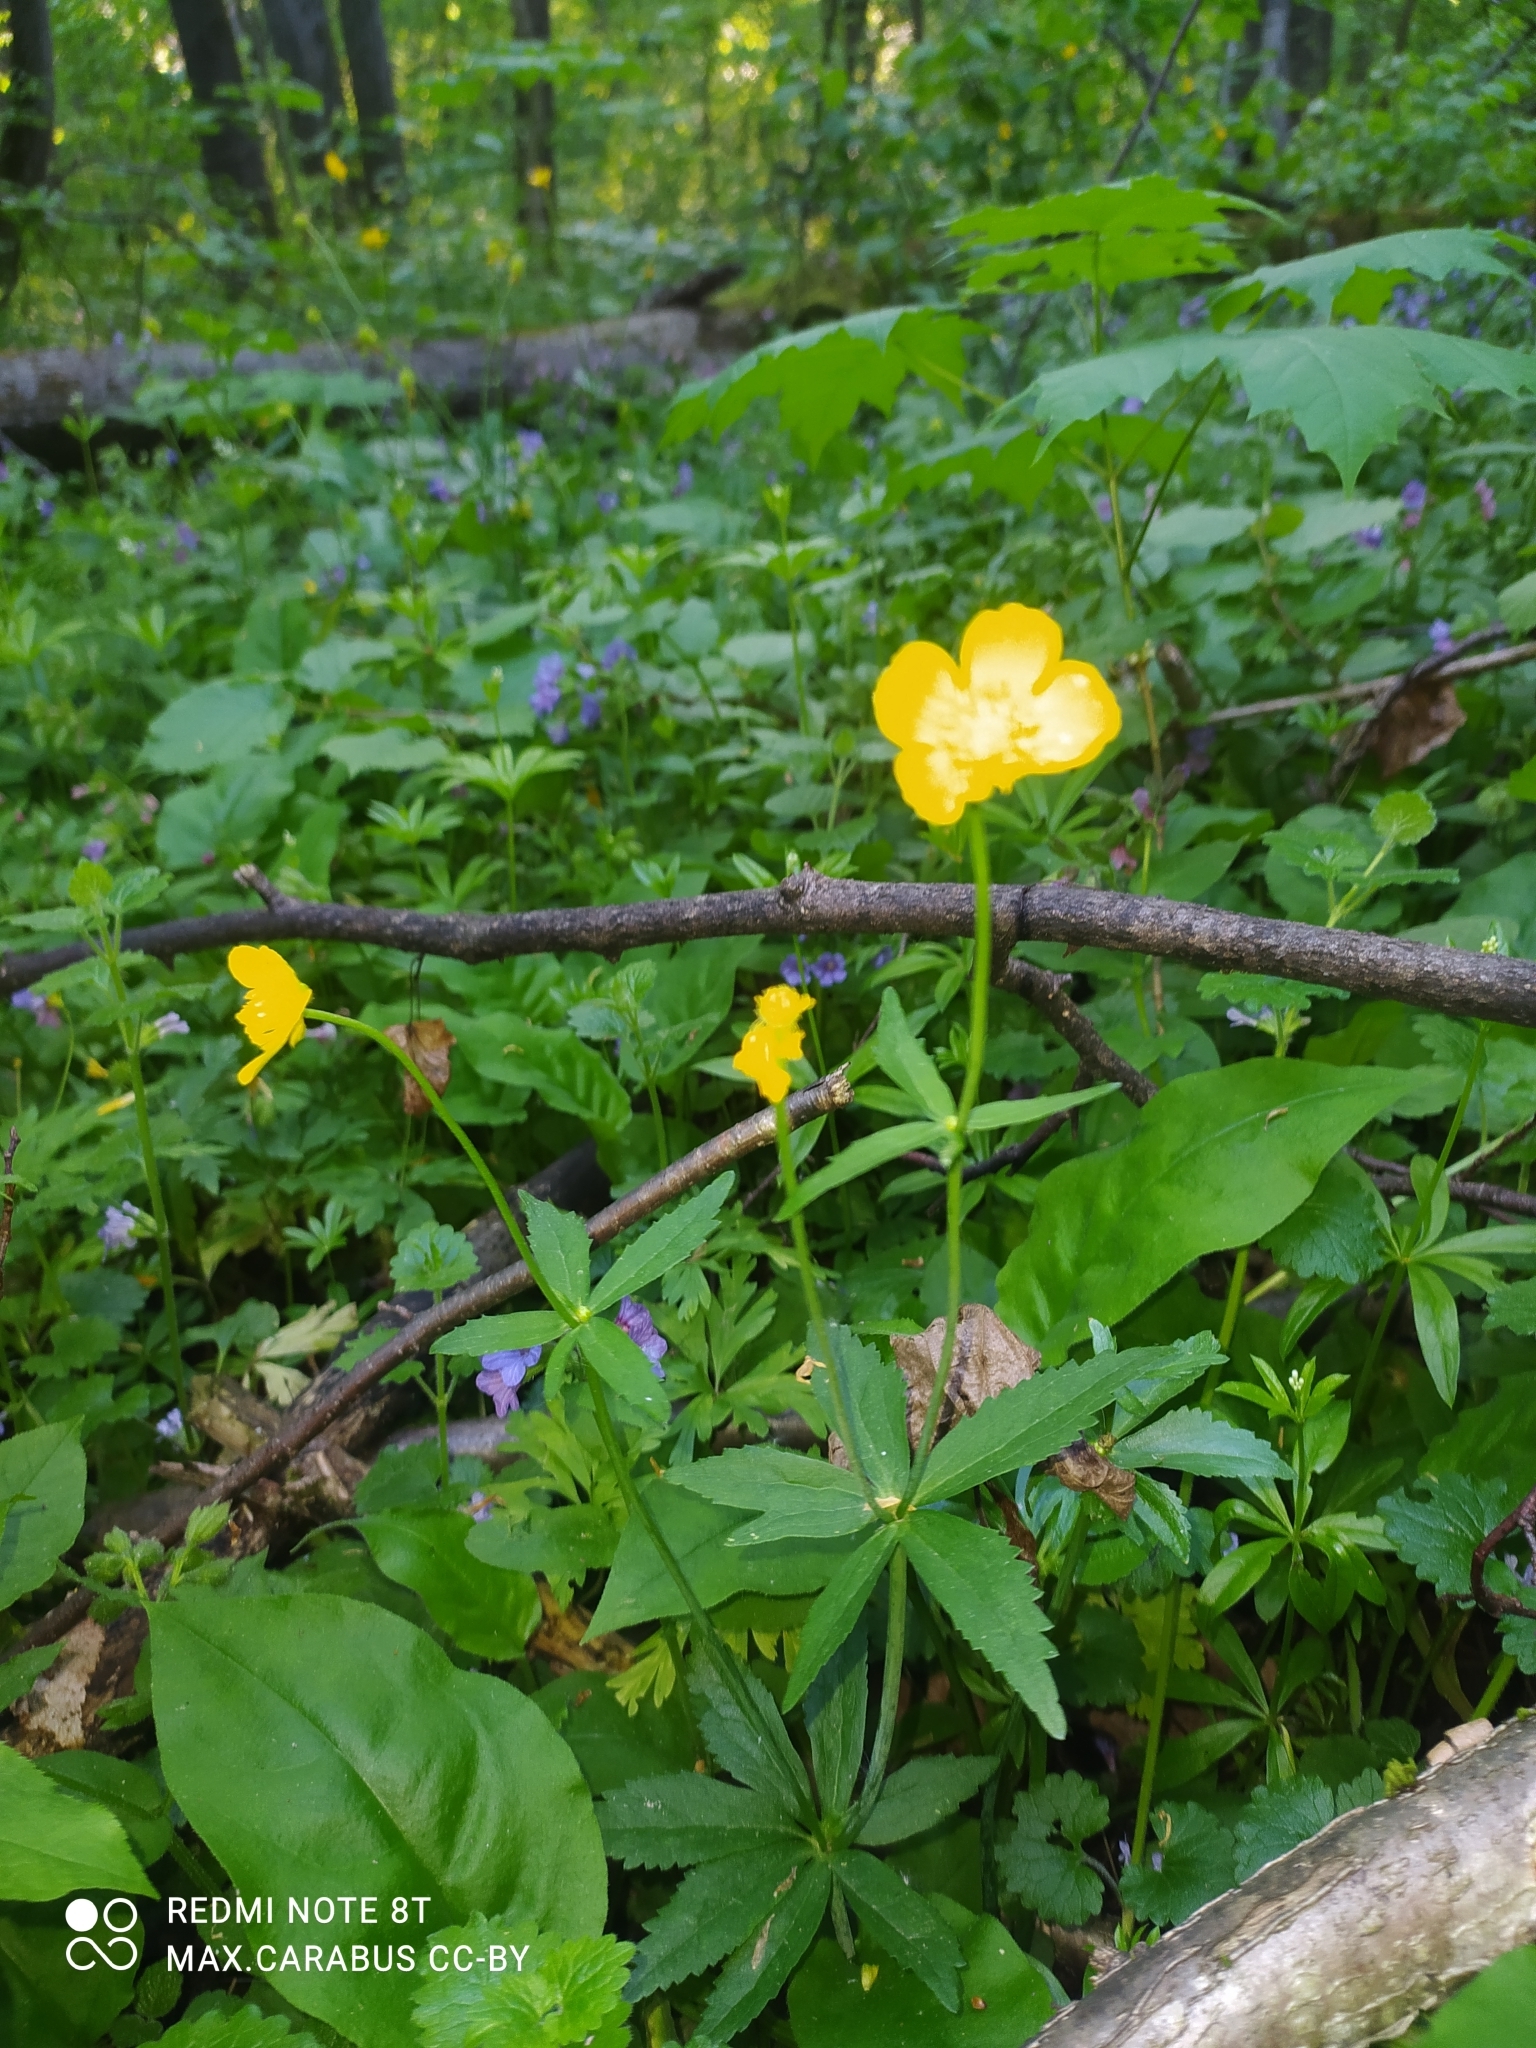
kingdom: Plantae
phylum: Tracheophyta
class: Magnoliopsida
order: Ranunculales
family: Ranunculaceae
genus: Ranunculus
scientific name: Ranunculus cassubicus
